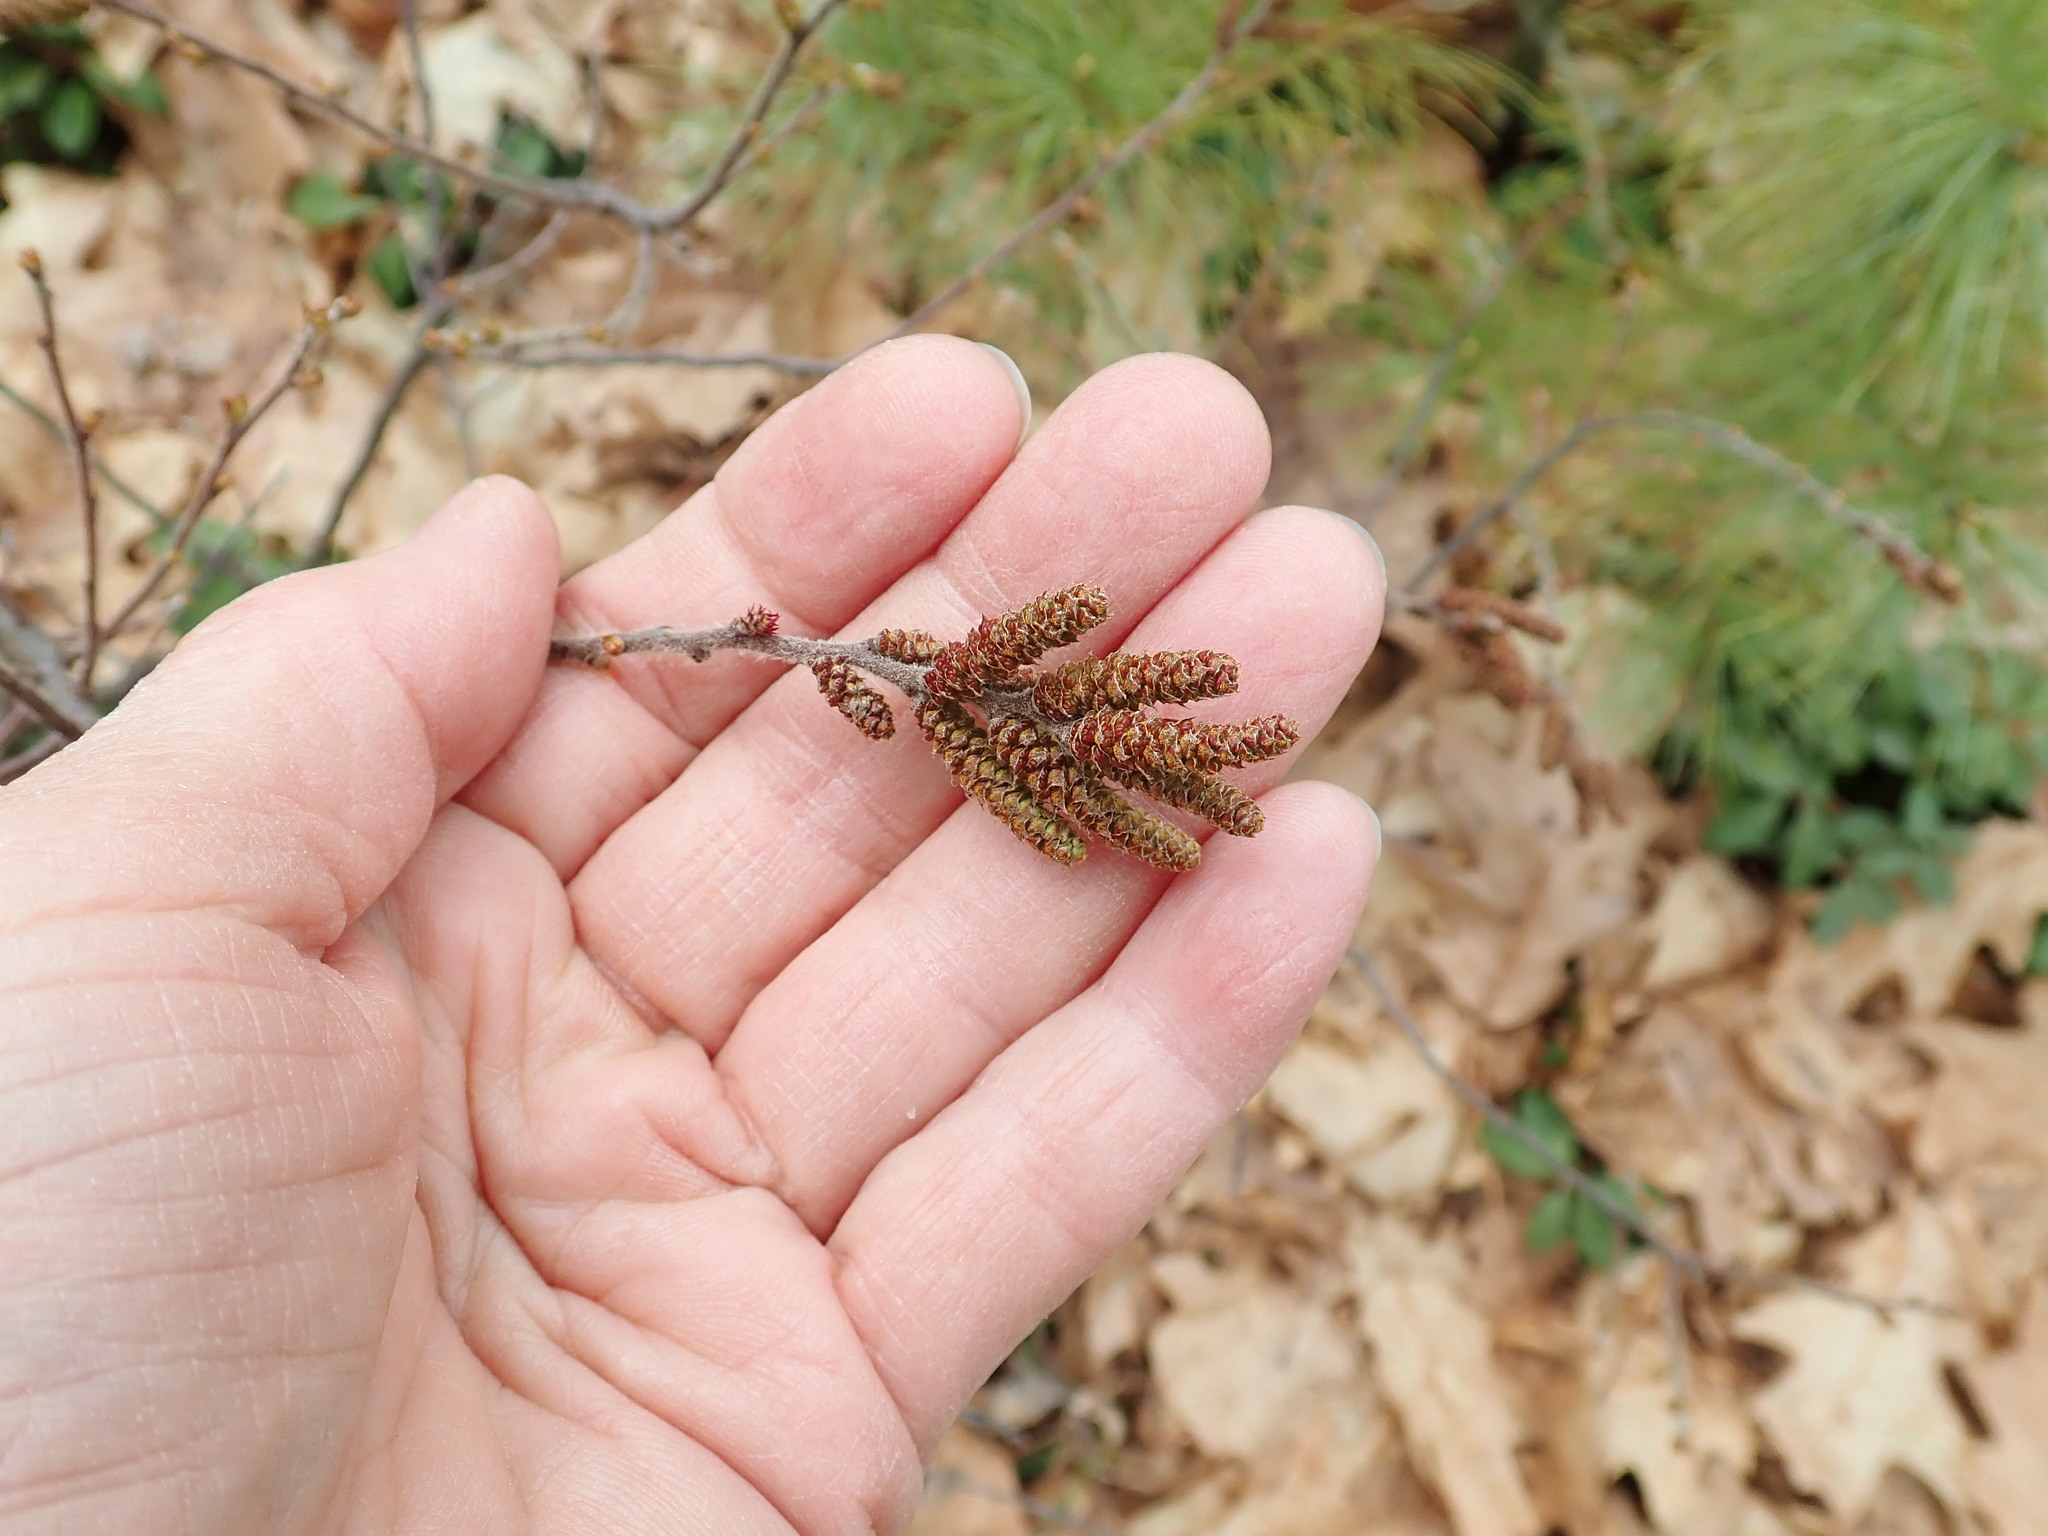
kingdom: Plantae
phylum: Tracheophyta
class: Magnoliopsida
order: Fagales
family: Myricaceae
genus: Comptonia
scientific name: Comptonia peregrina
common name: Sweet-fern
